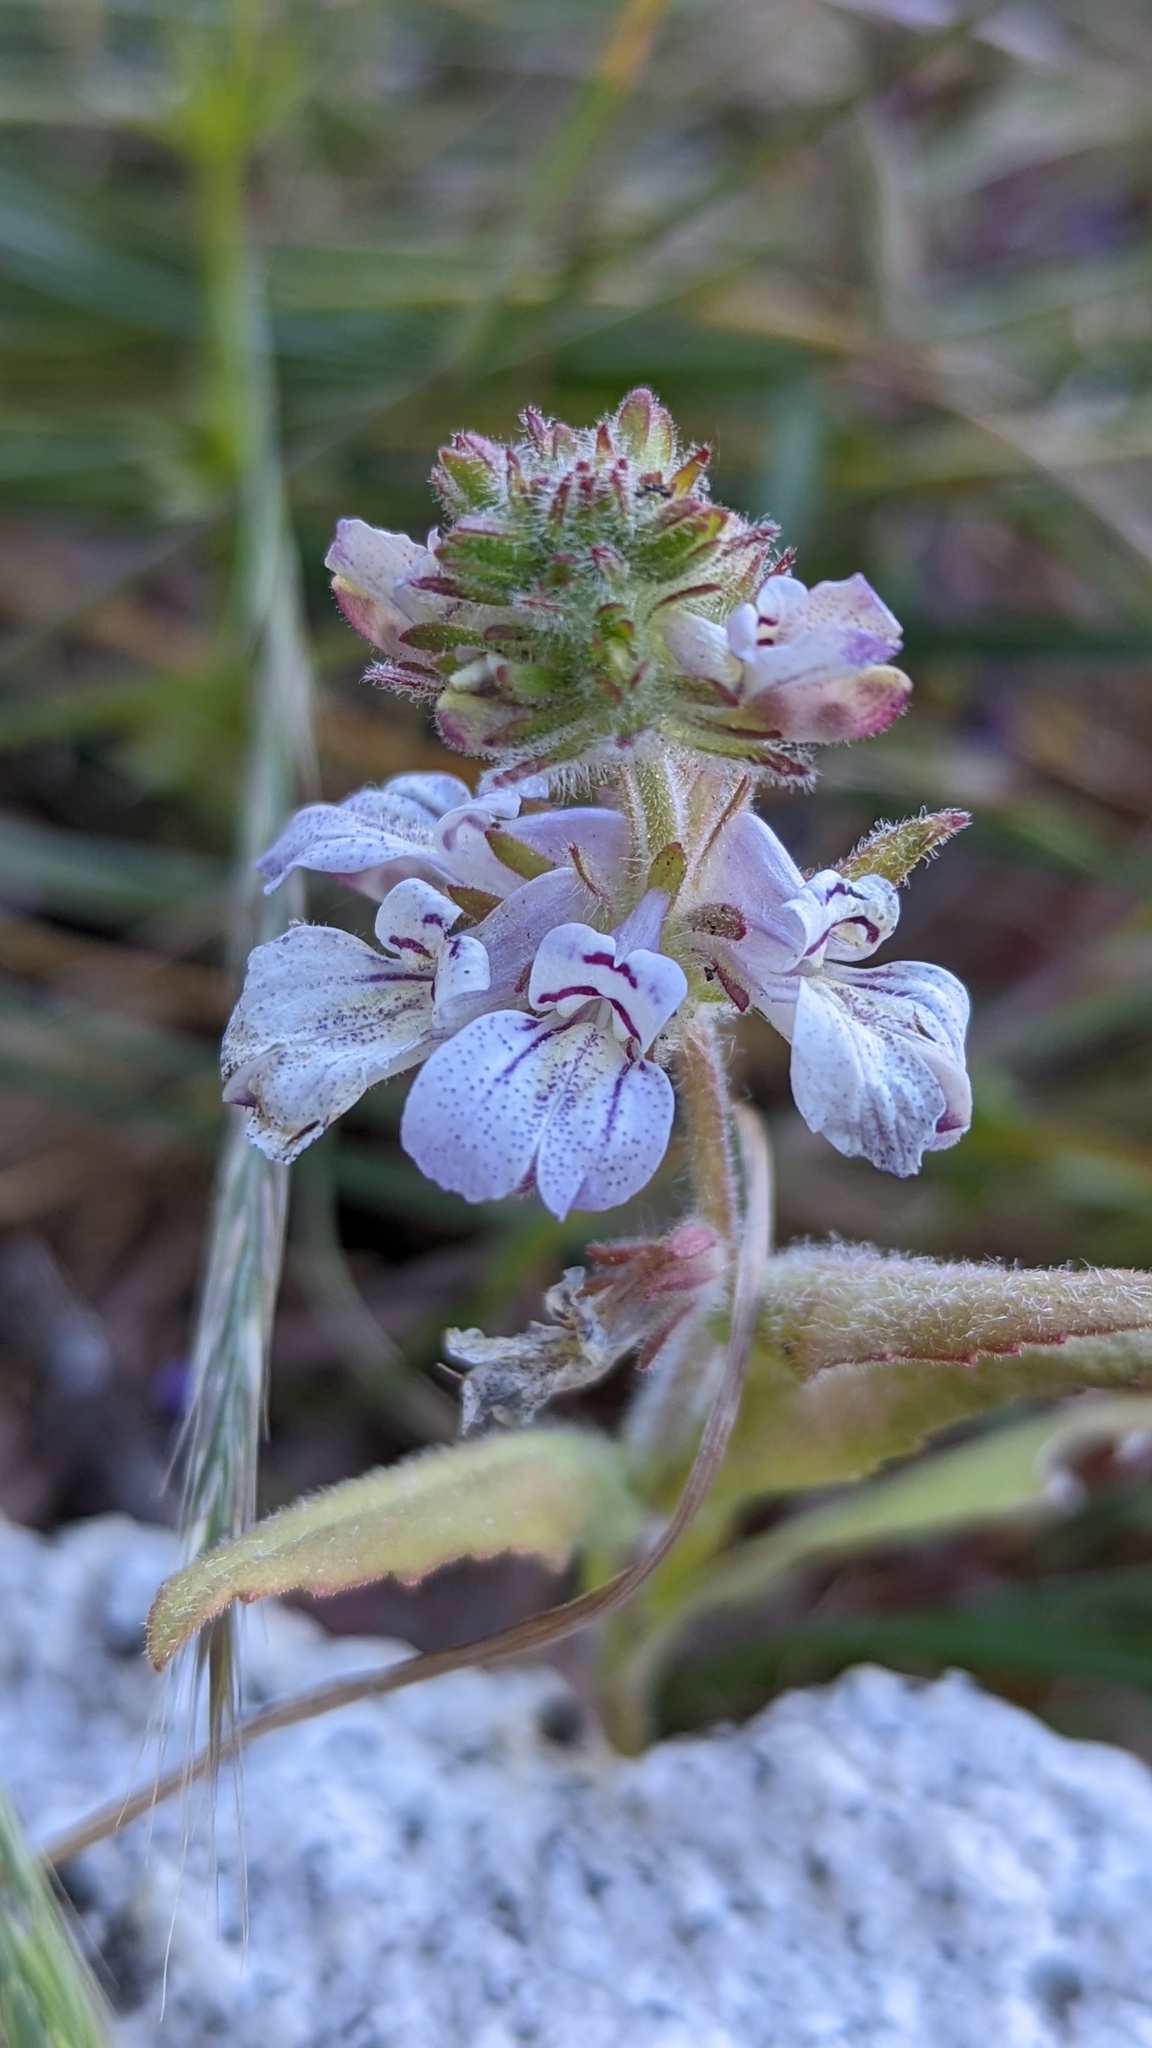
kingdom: Plantae
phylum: Tracheophyta
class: Magnoliopsida
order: Lamiales
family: Plantaginaceae
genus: Collinsia
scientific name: Collinsia tinctoria
